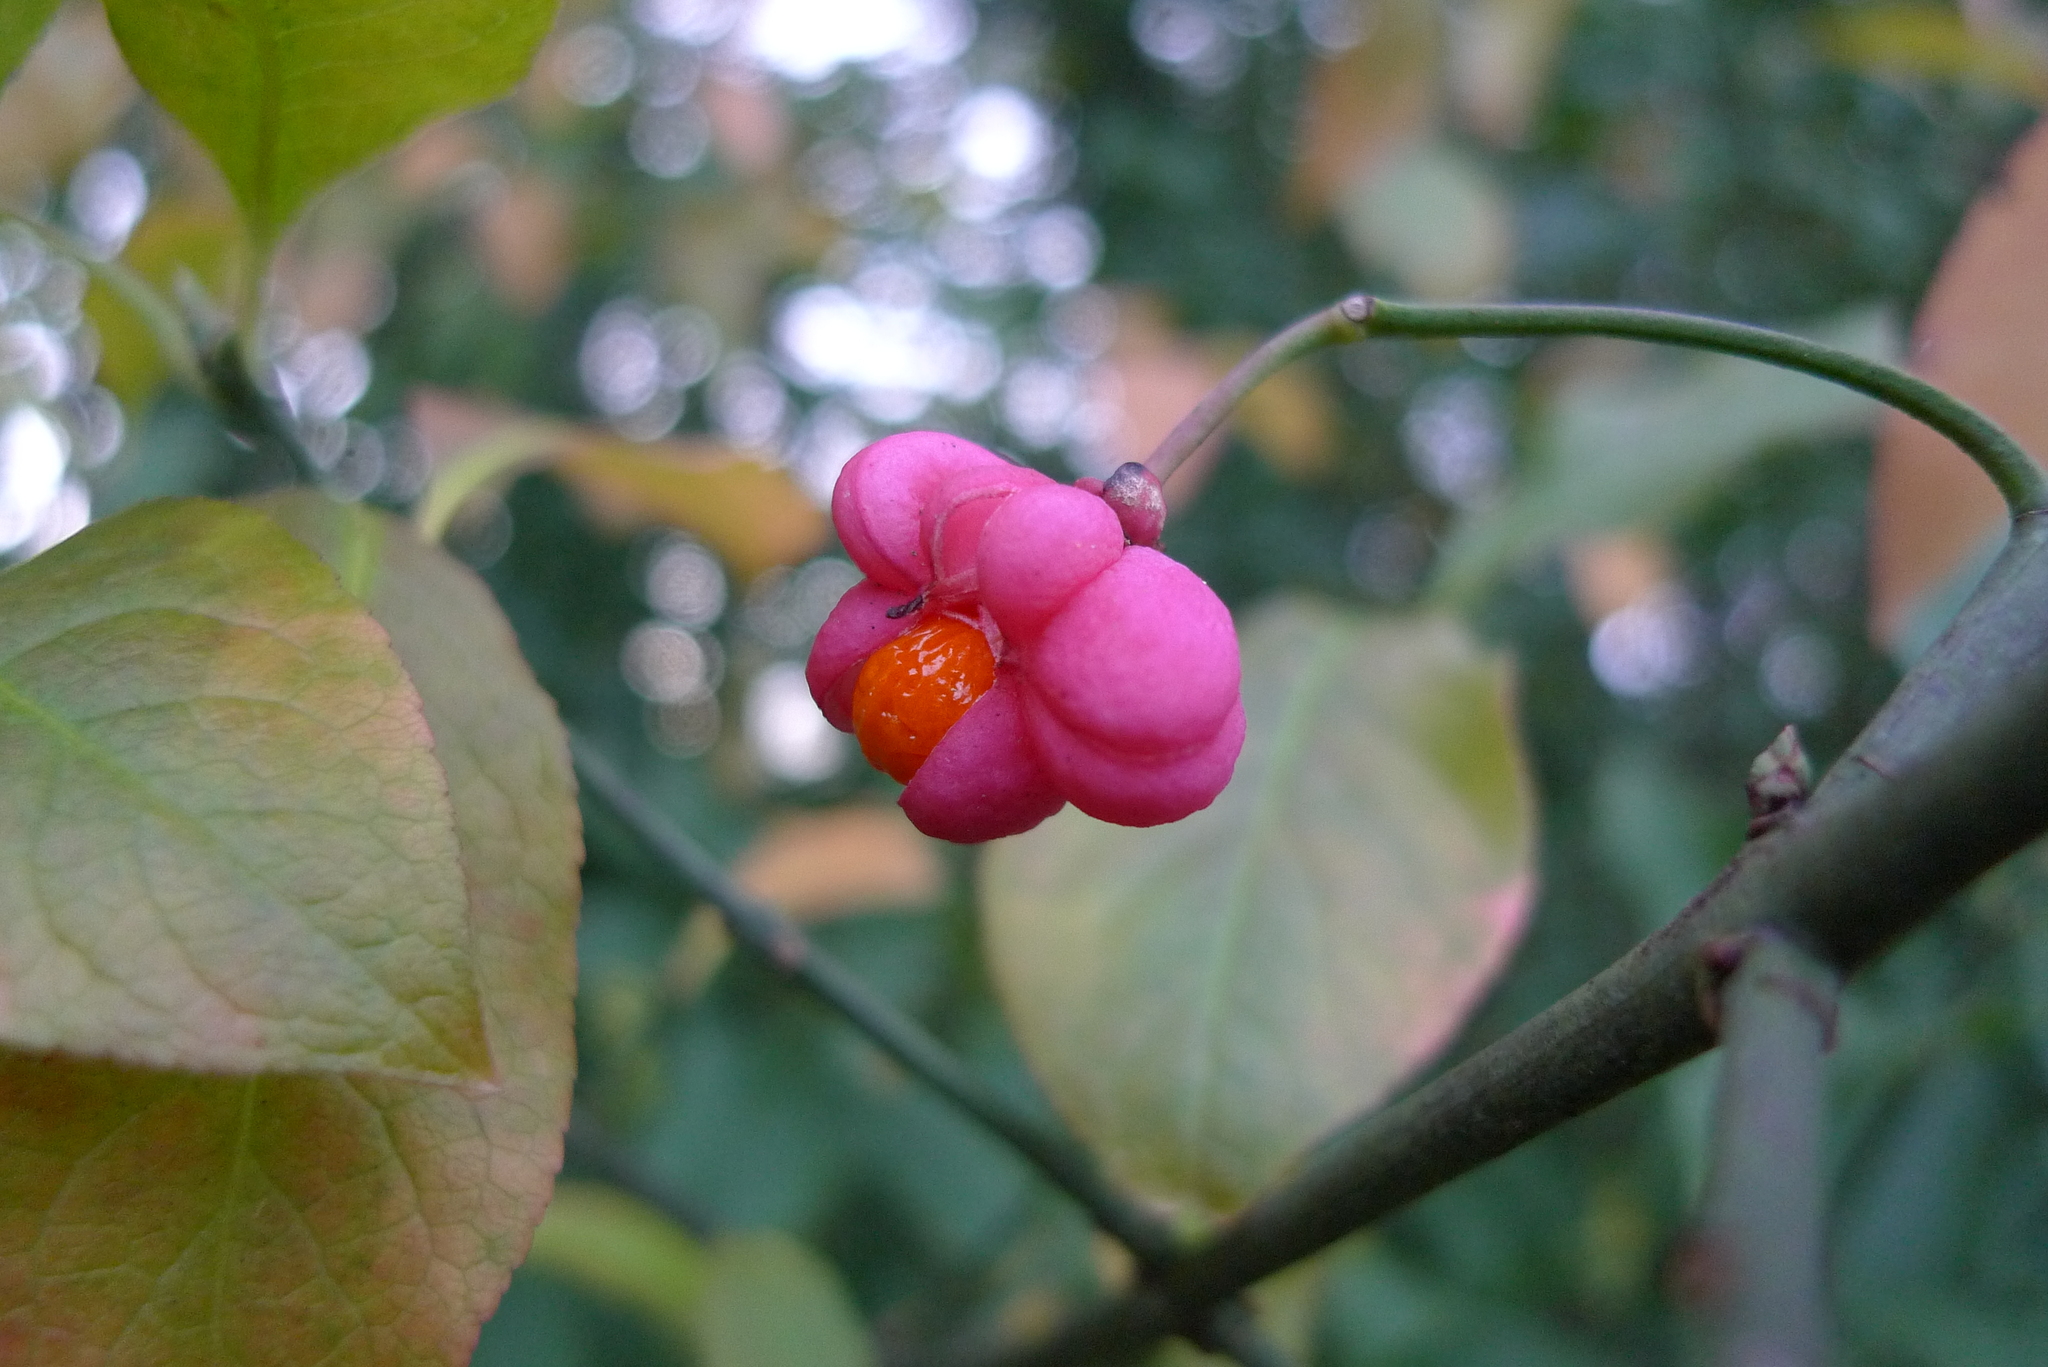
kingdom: Plantae
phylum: Tracheophyta
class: Magnoliopsida
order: Celastrales
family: Celastraceae
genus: Euonymus
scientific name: Euonymus europaeus
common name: Spindle
